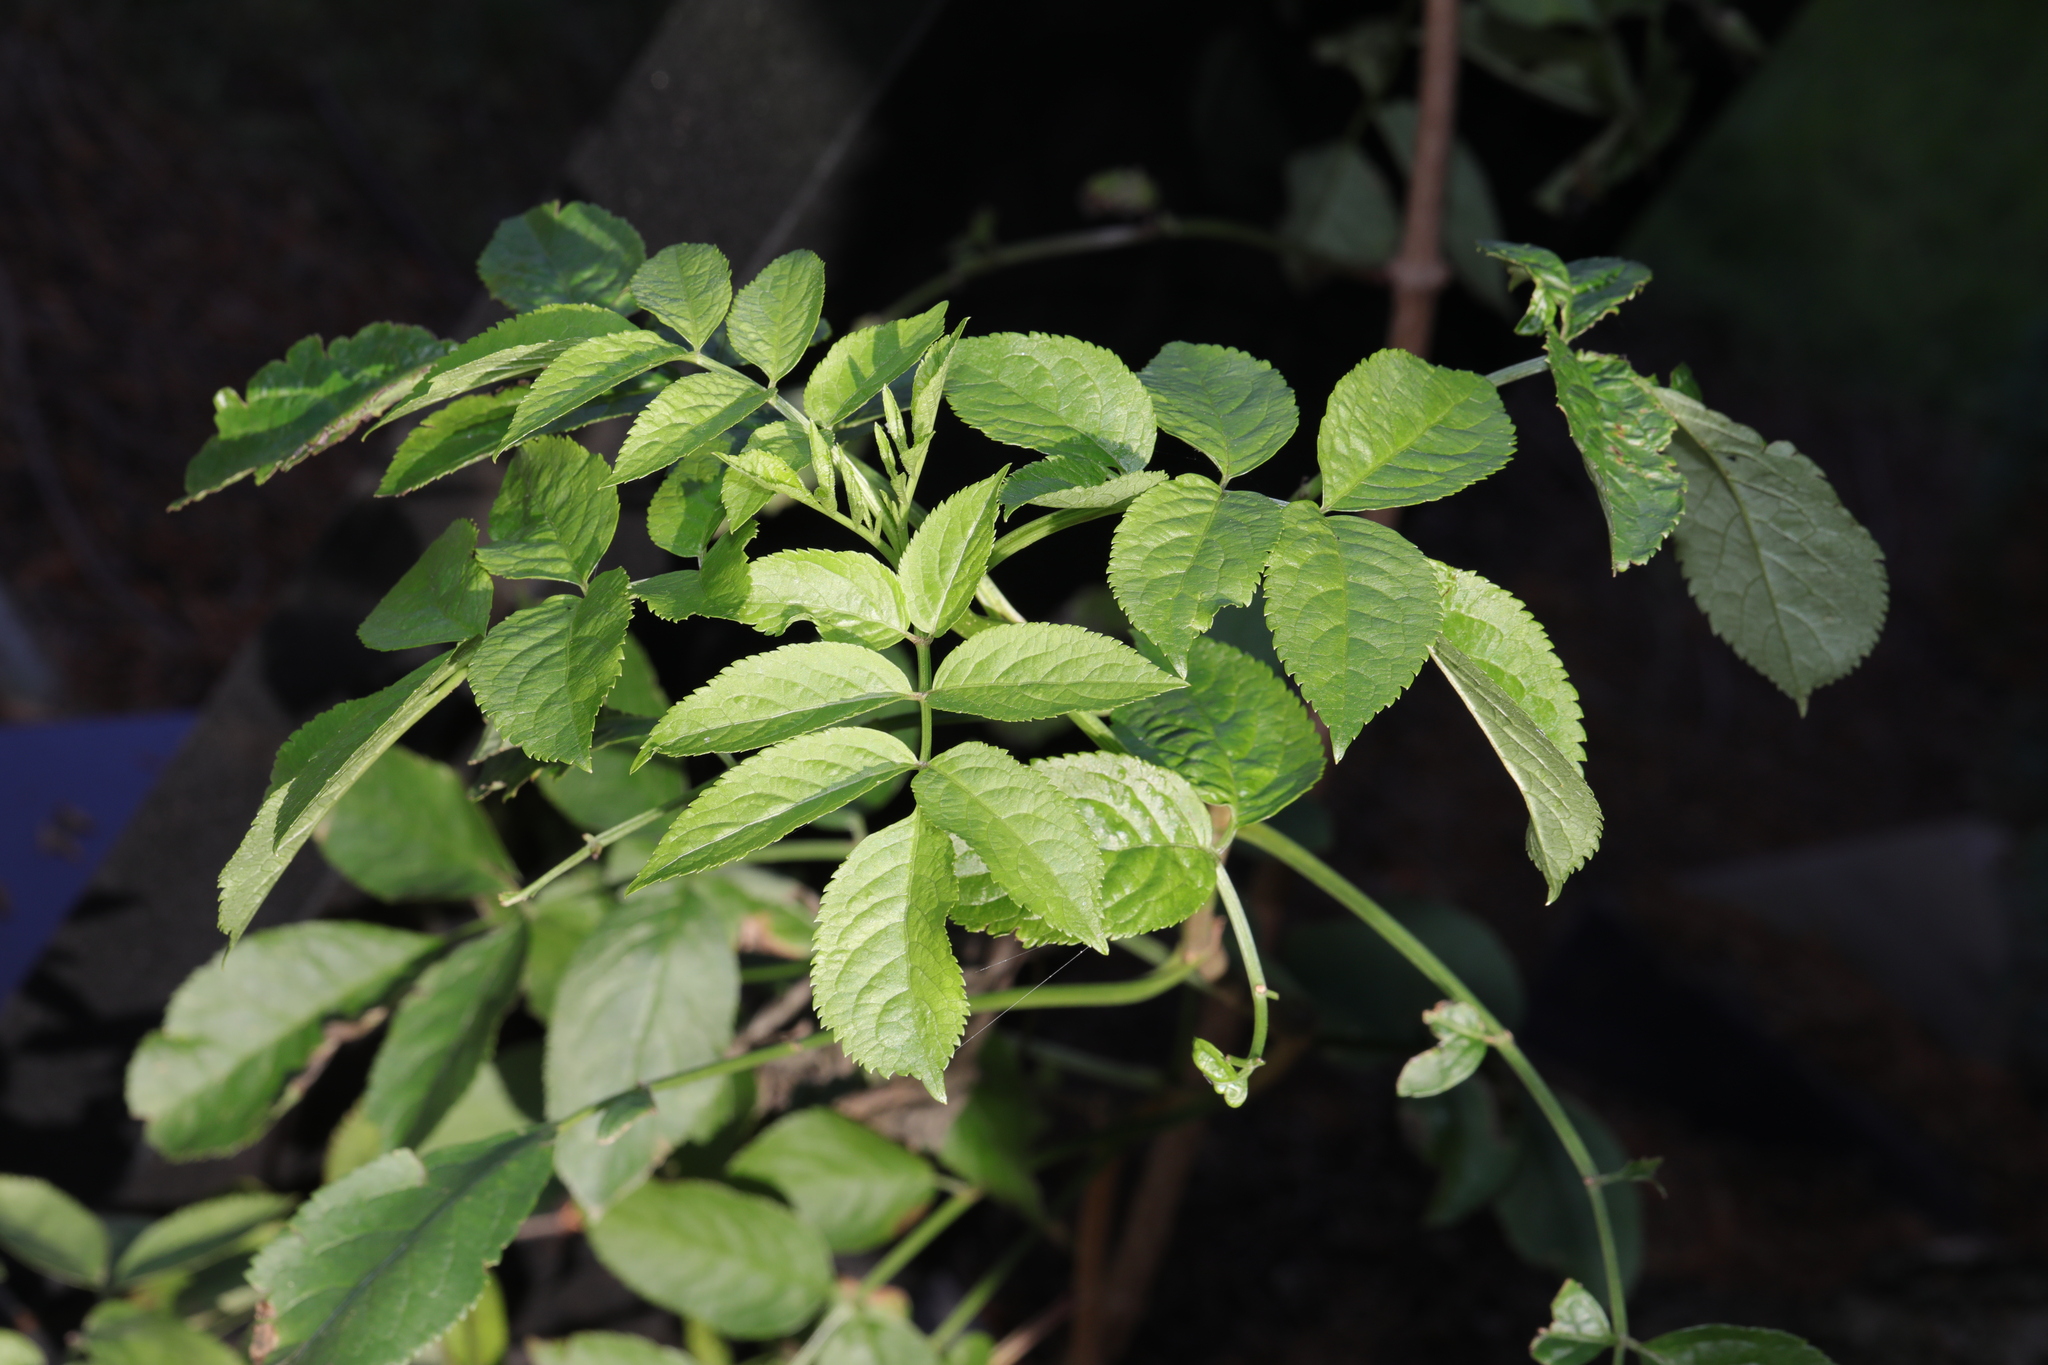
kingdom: Plantae
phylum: Tracheophyta
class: Magnoliopsida
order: Dipsacales
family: Viburnaceae
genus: Sambucus
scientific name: Sambucus nigra
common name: Elder
